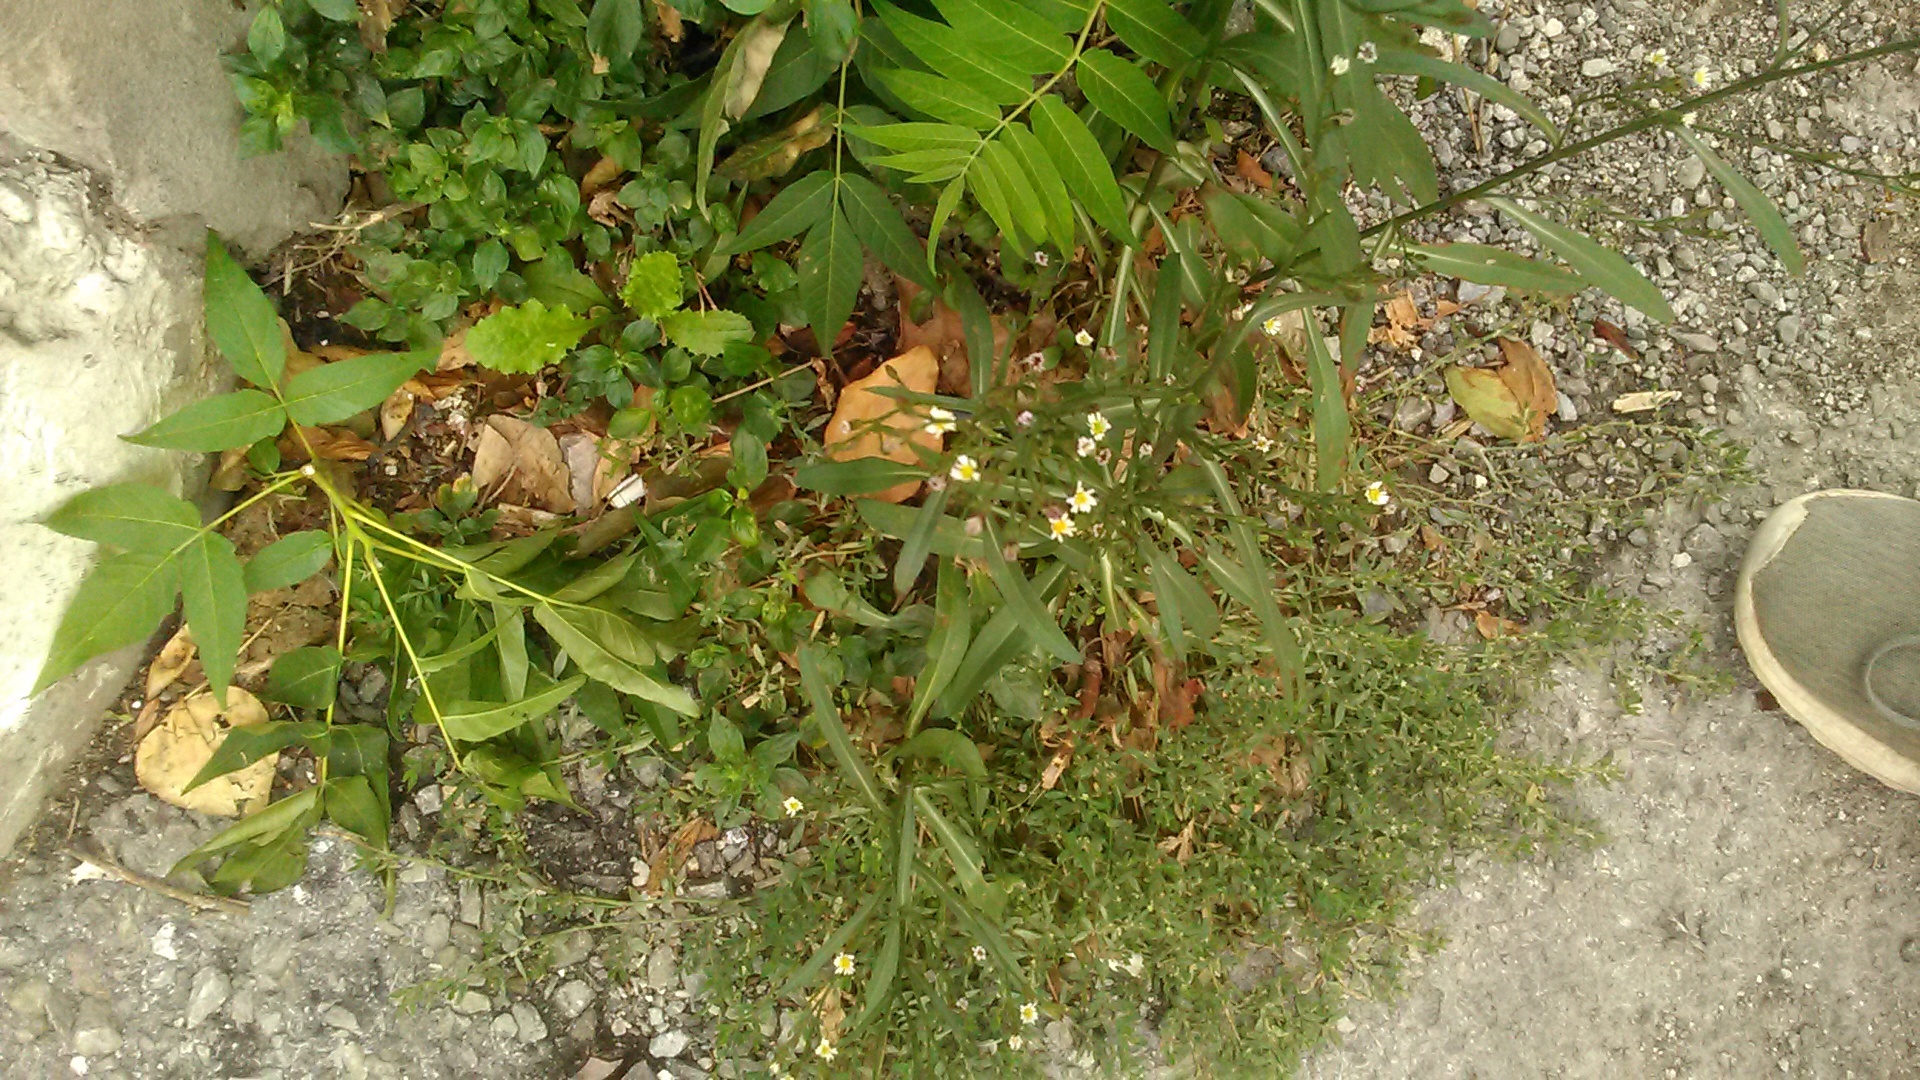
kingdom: Plantae
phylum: Tracheophyta
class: Magnoliopsida
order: Asterales
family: Asteraceae
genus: Erigeron
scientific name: Erigeron acris
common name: Blue fleabane
